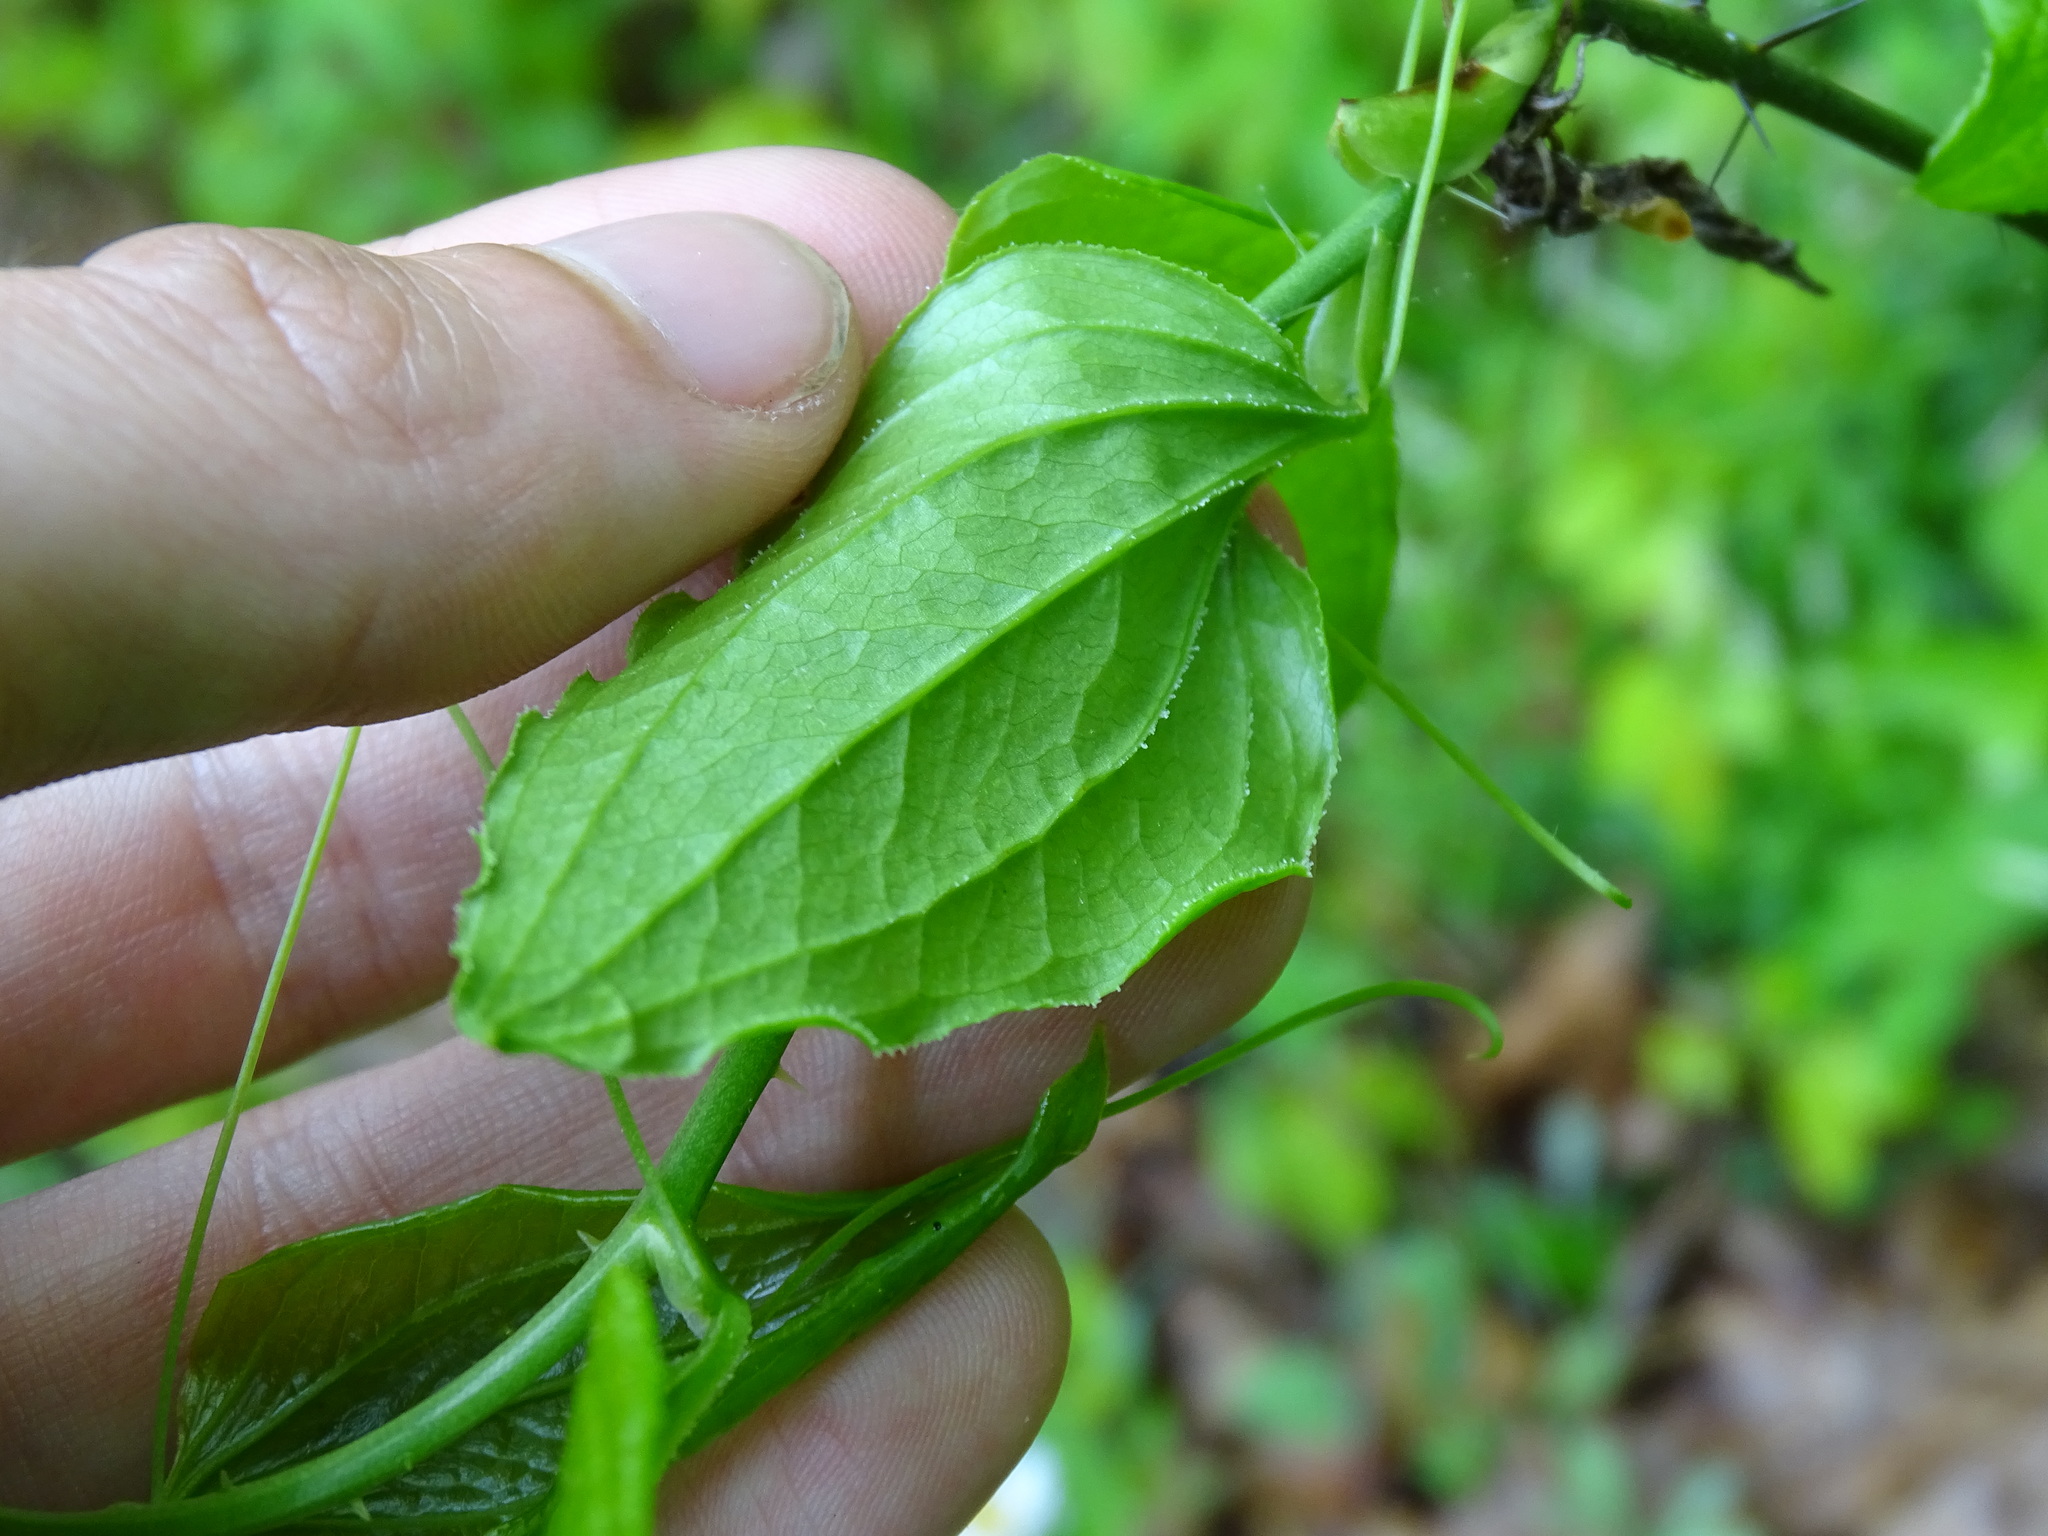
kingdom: Plantae
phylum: Tracheophyta
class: Liliopsida
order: Liliales
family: Smilacaceae
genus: Smilax
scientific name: Smilax tamnoides
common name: Hellfetter
